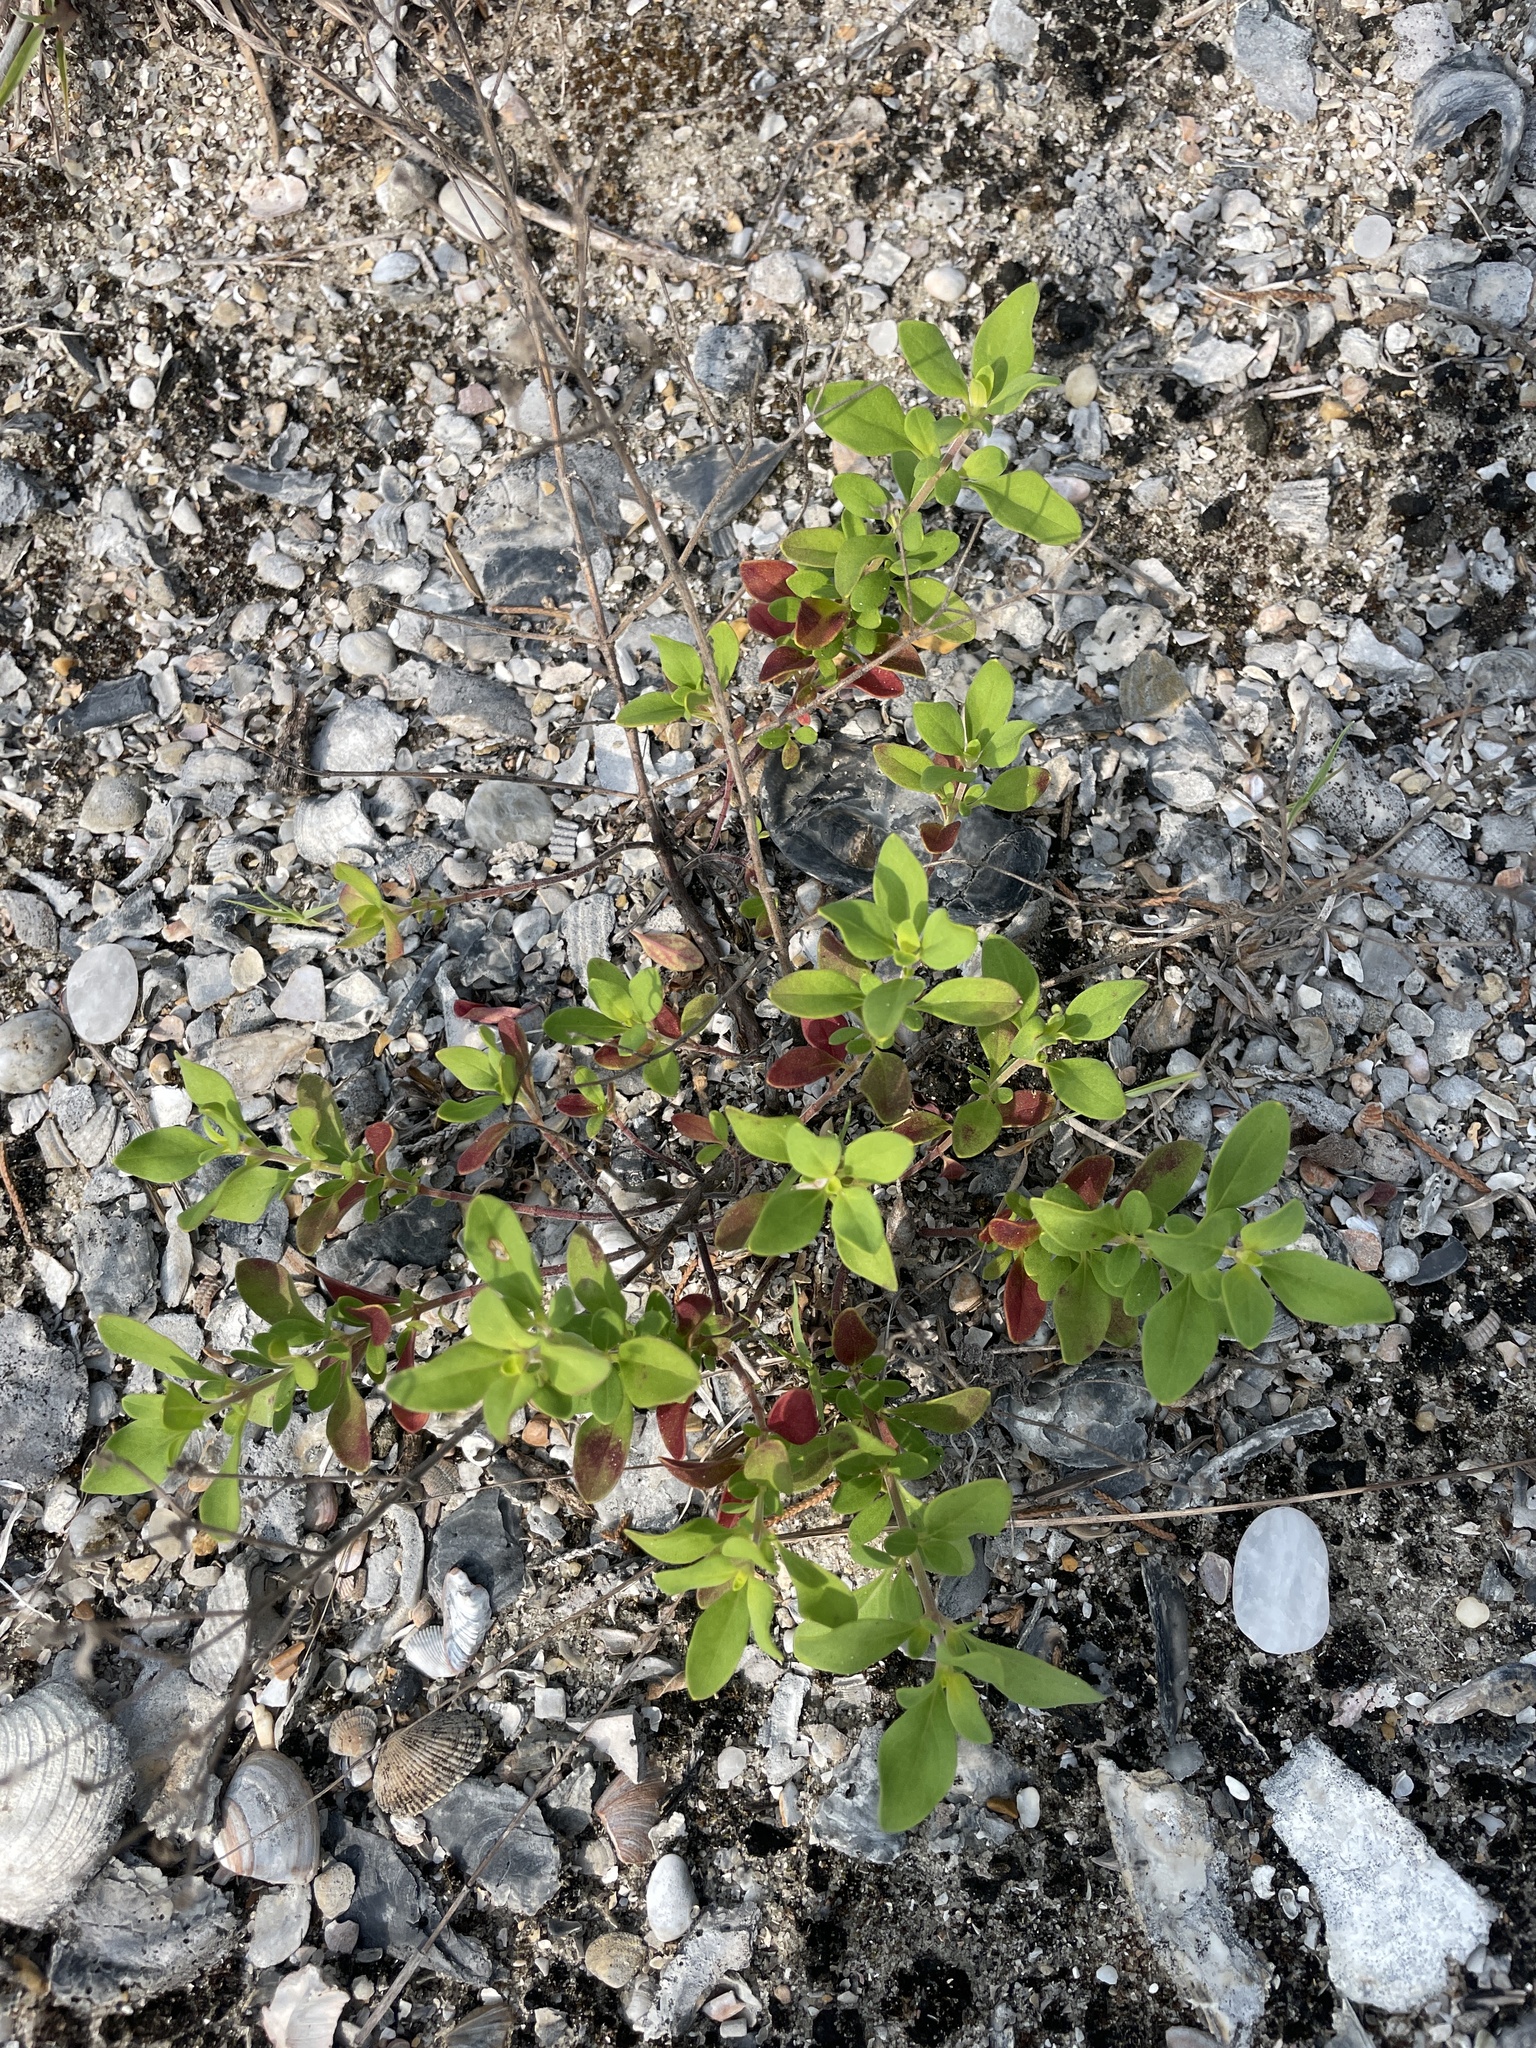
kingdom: Plantae
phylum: Tracheophyta
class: Magnoliopsida
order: Lamiales
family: Lamiaceae
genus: Trichostema
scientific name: Trichostema nesophilum
